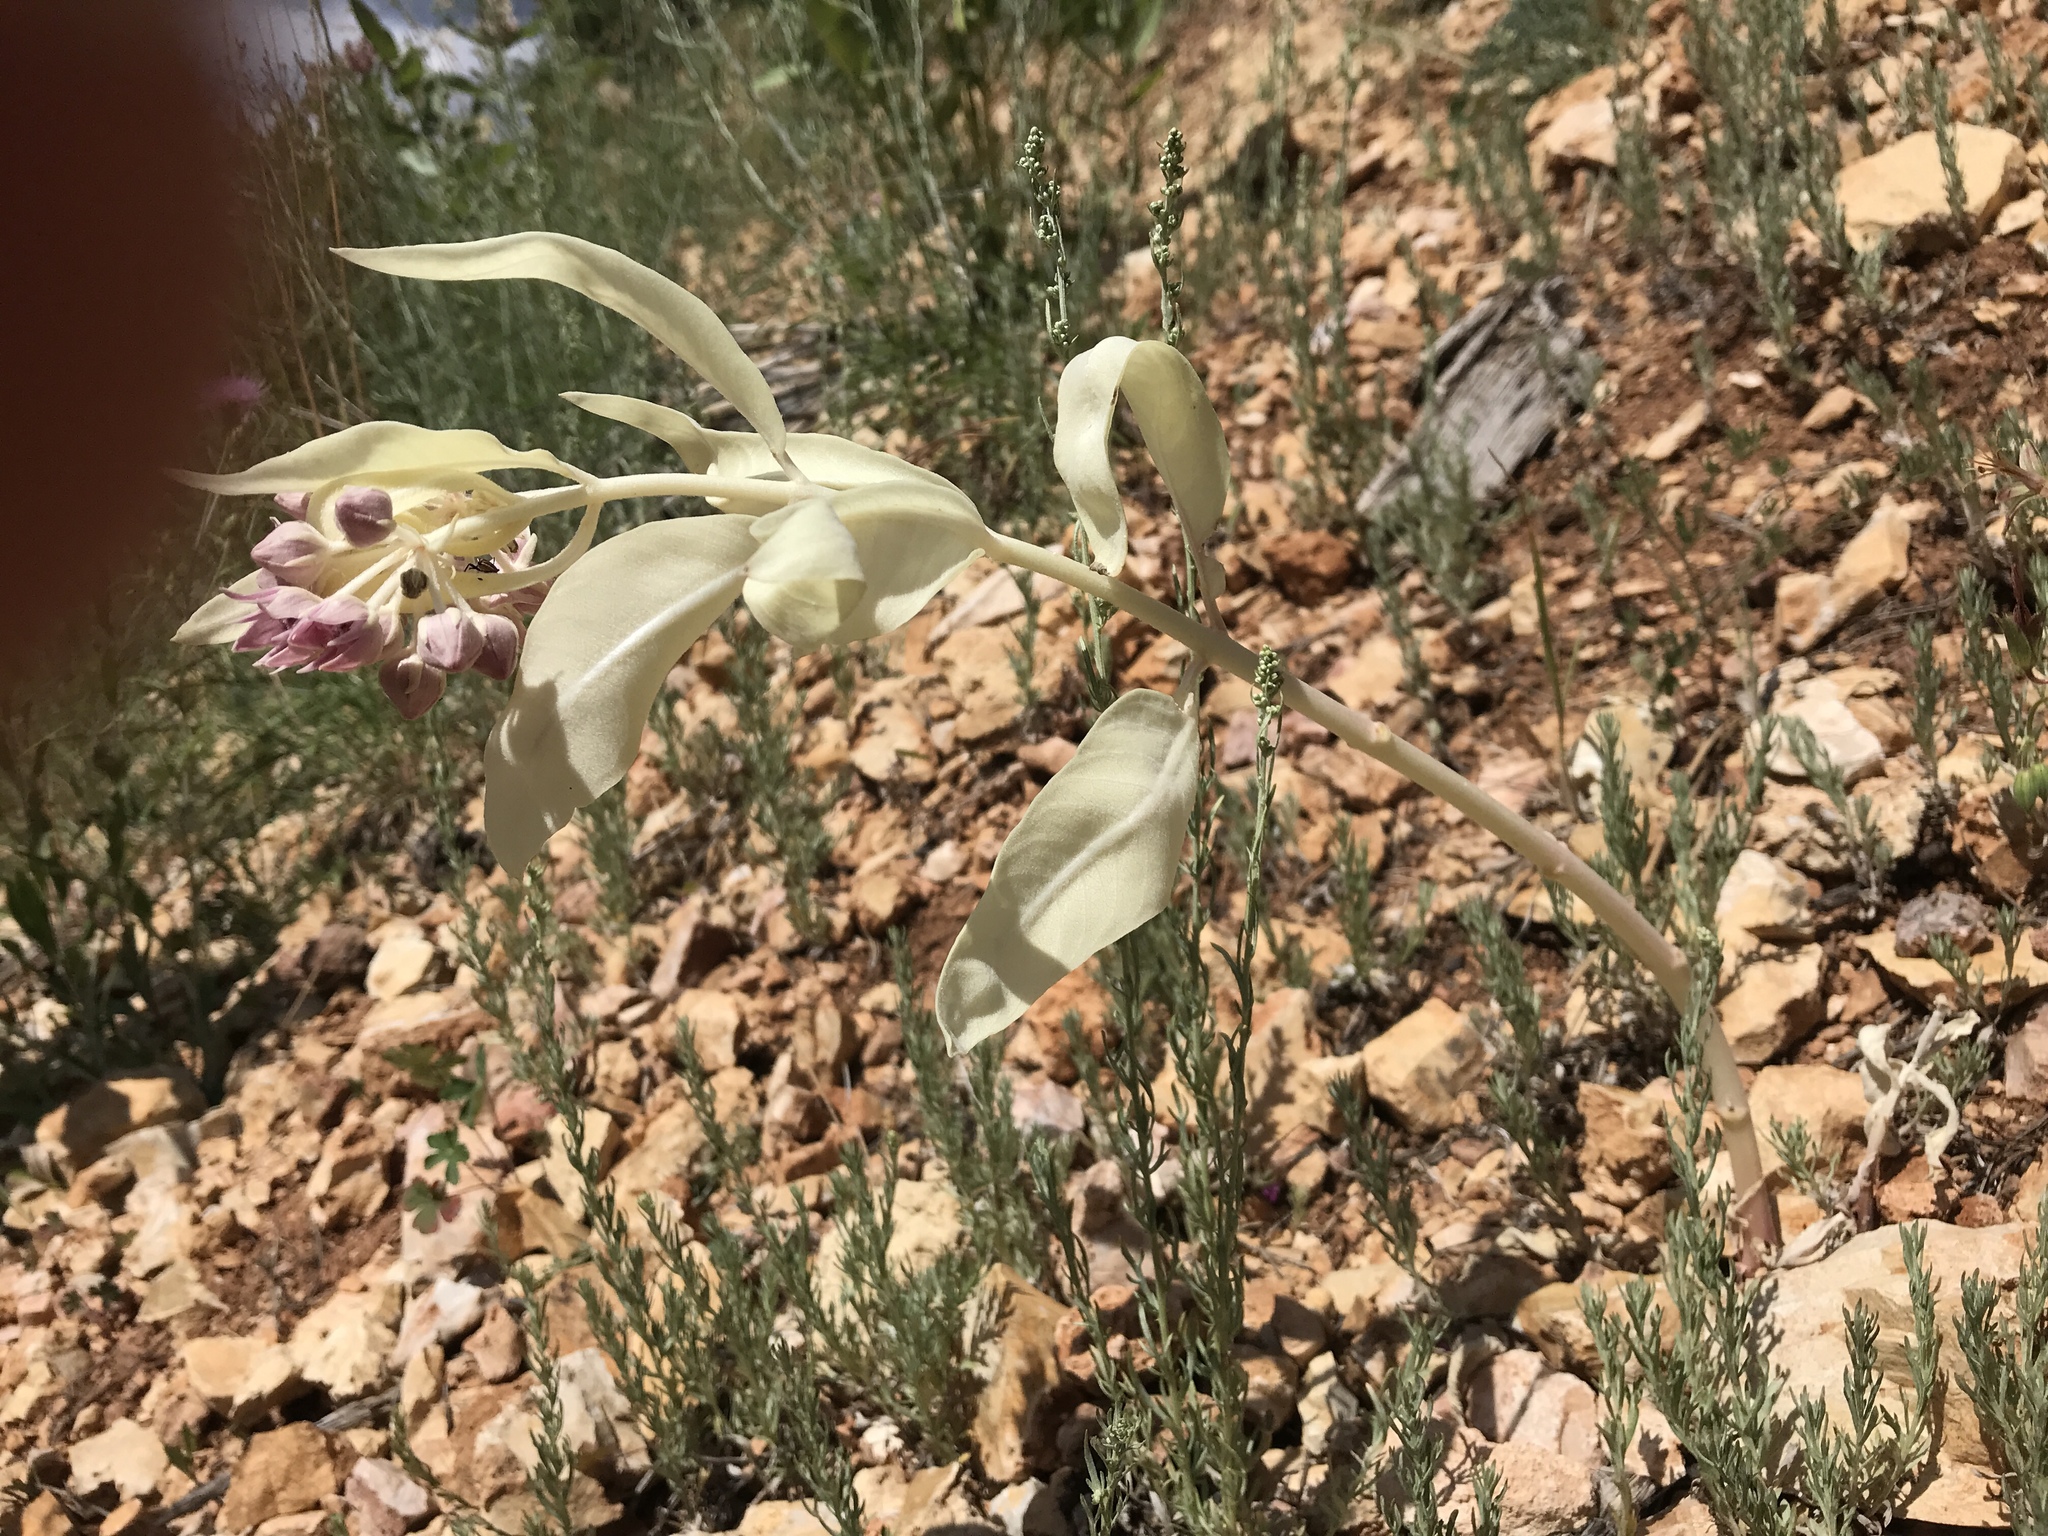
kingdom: Plantae
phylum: Tracheophyta
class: Magnoliopsida
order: Gentianales
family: Apocynaceae
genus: Asclepias
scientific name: Asclepias speciosa
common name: Showy milkweed
